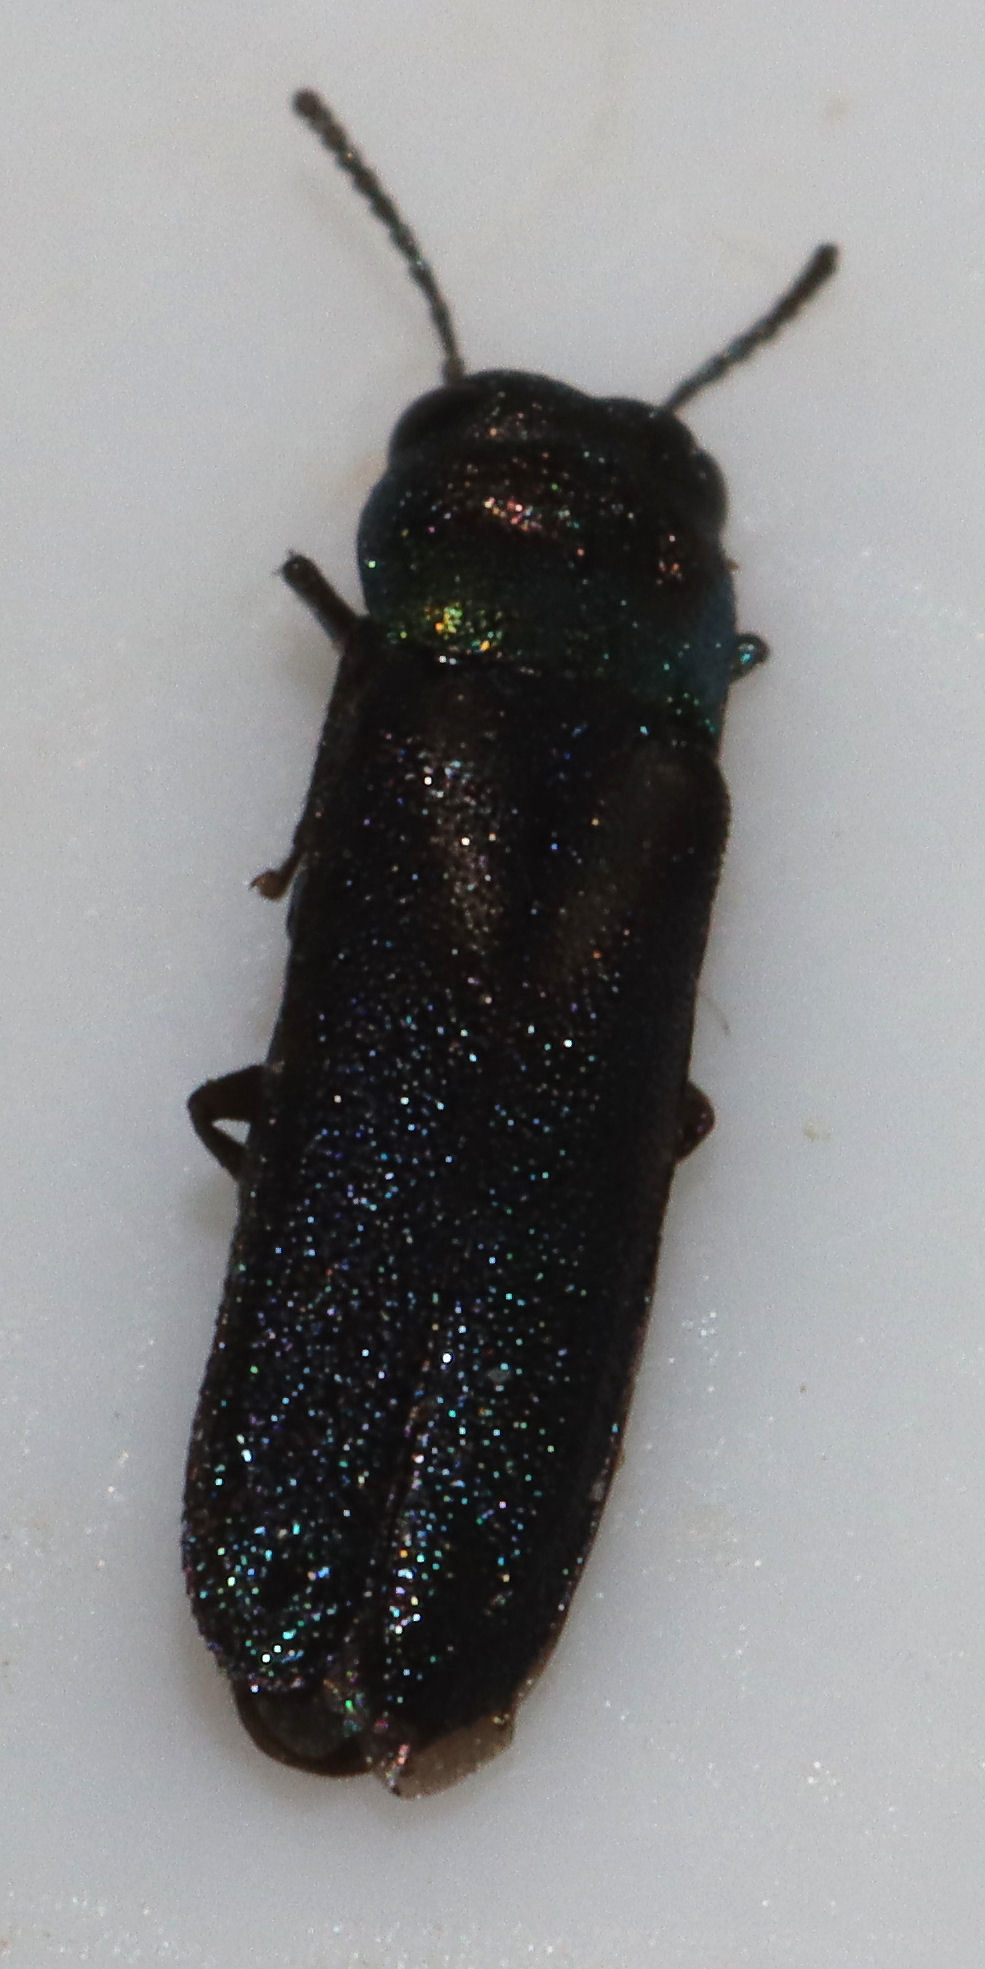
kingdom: Animalia
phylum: Arthropoda
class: Insecta
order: Coleoptera
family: Buprestidae
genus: Xenorhipis
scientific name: Xenorhipis brendeli
